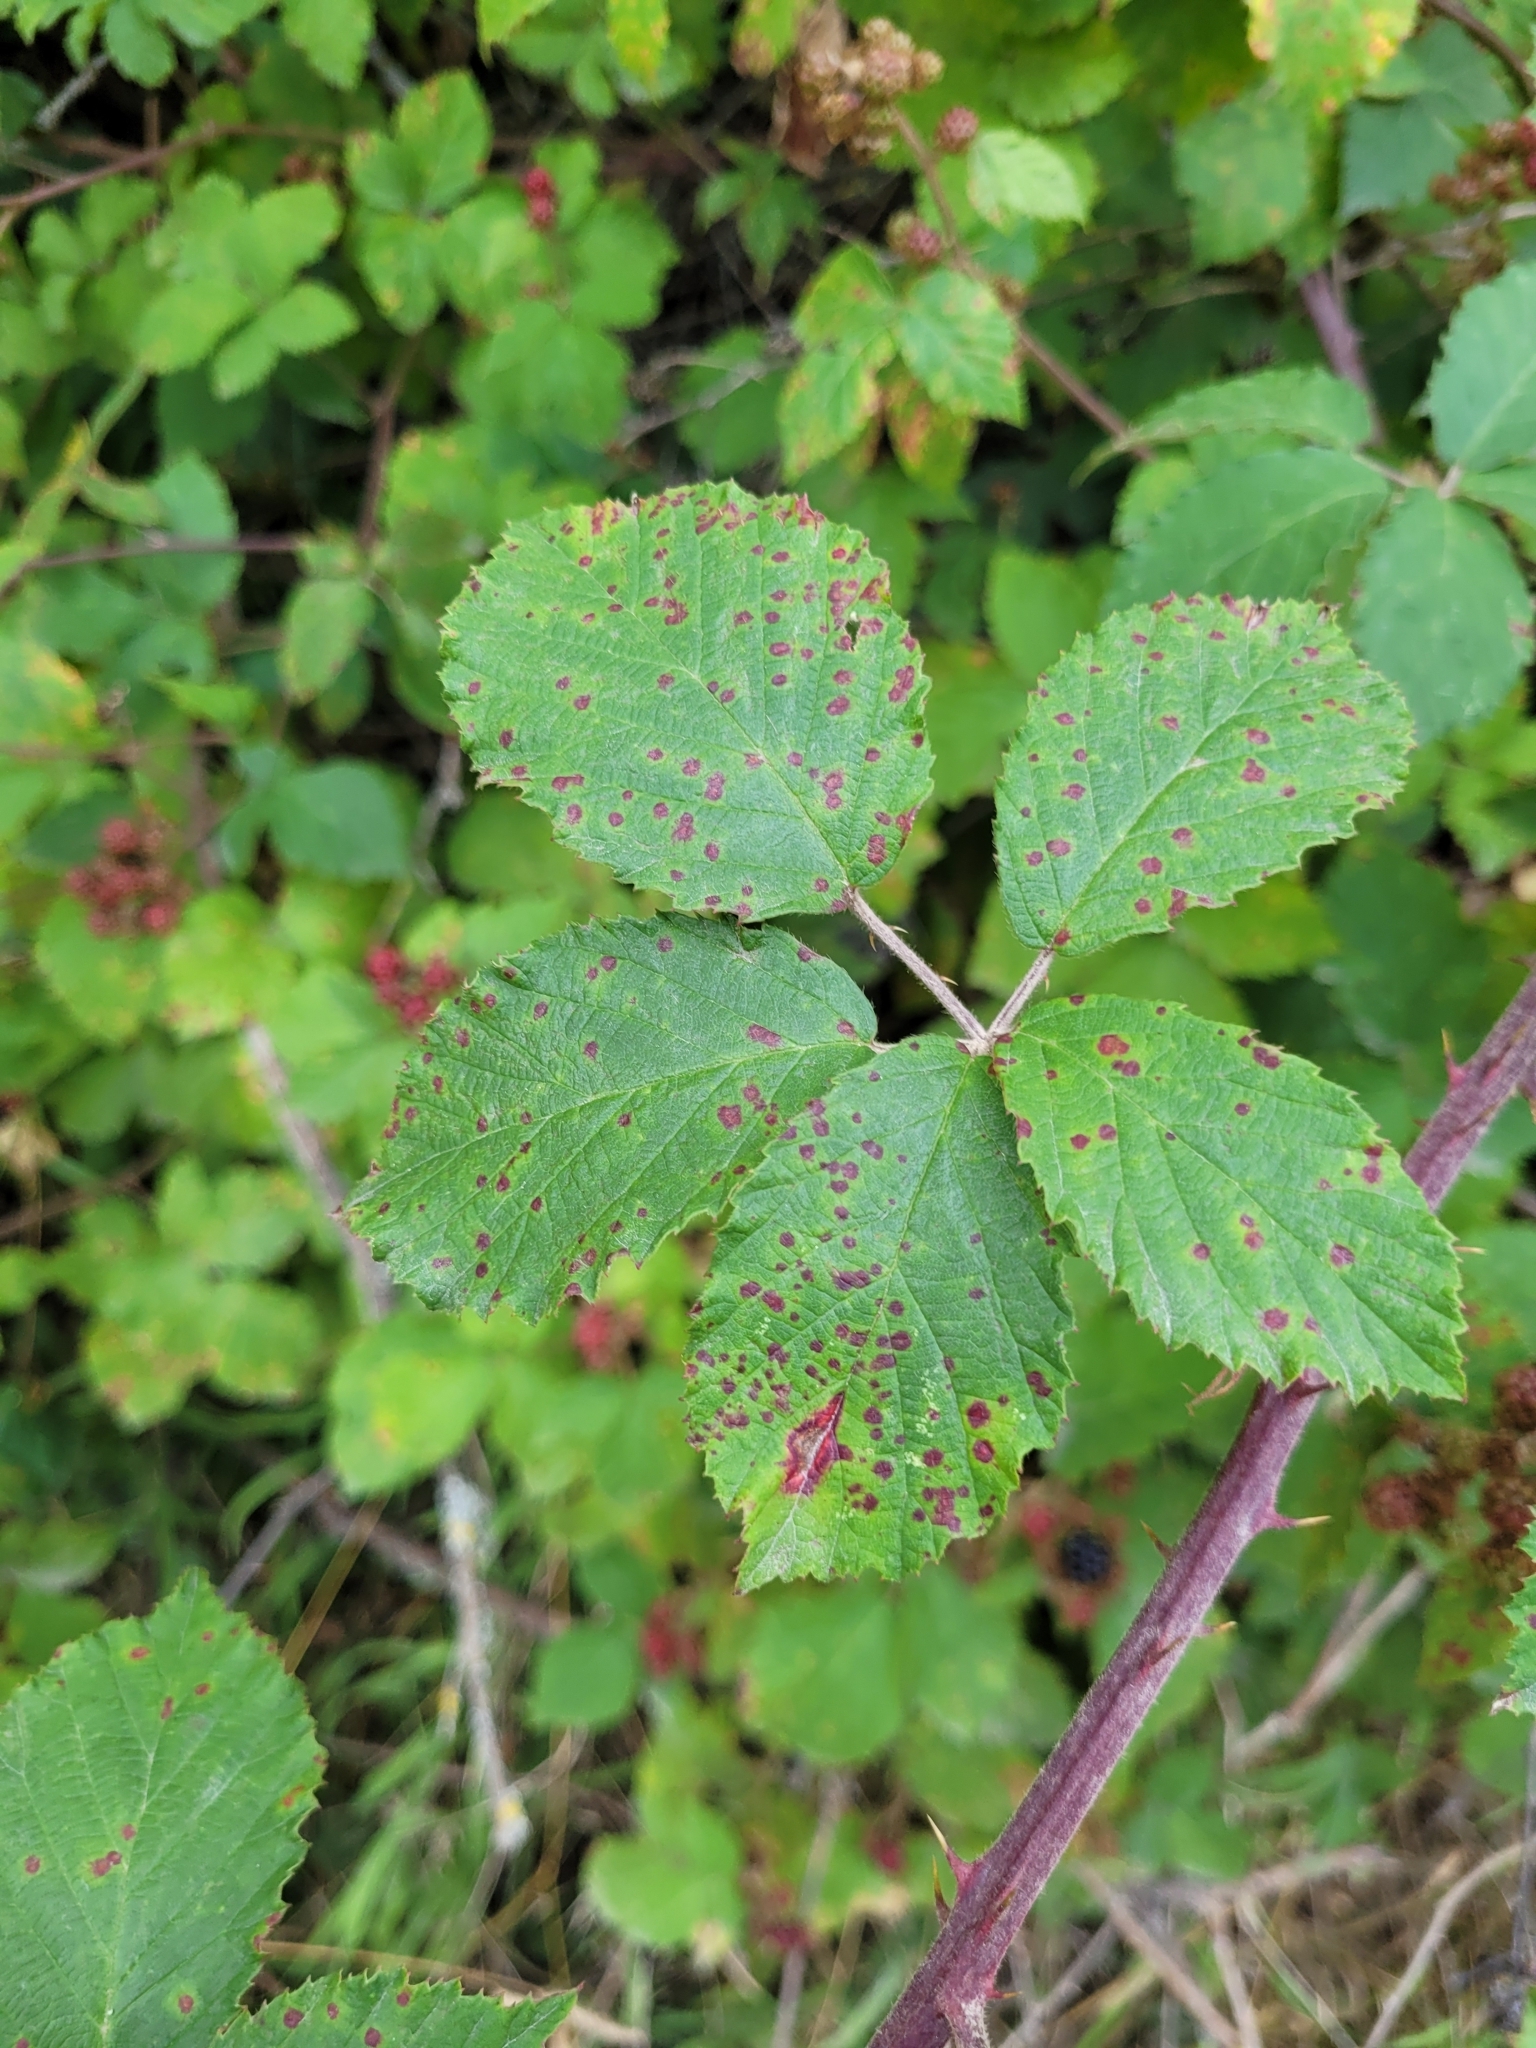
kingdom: Fungi
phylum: Basidiomycota
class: Pucciniomycetes
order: Pucciniales
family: Phragmidiaceae
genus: Phragmidium
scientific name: Phragmidium violaceum
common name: Violet bramble rust
